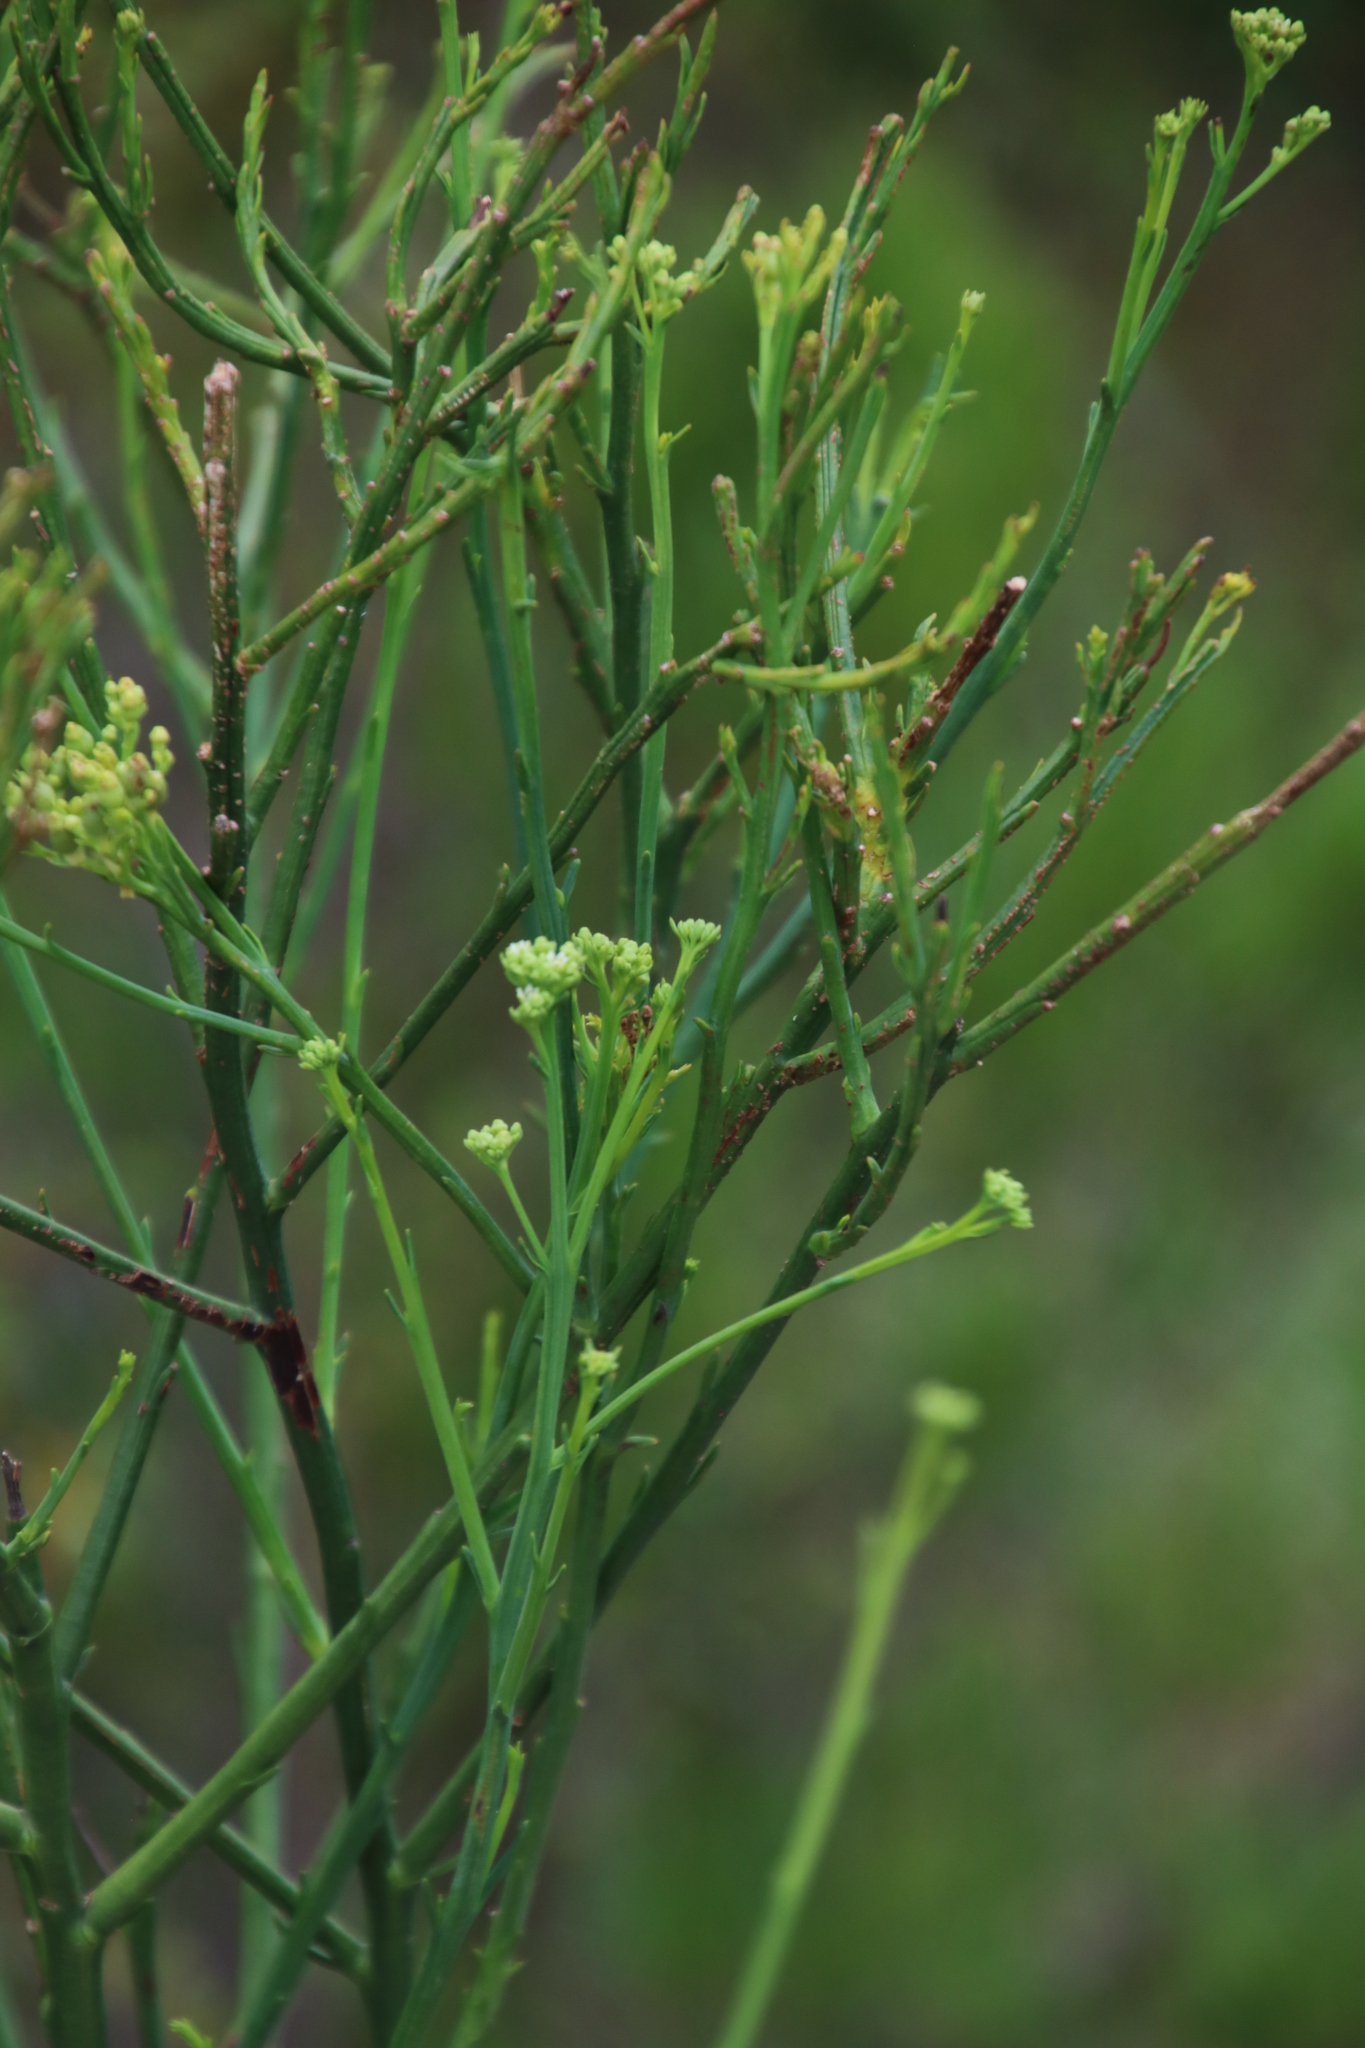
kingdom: Plantae
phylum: Tracheophyta
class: Magnoliopsida
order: Santalales
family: Thesiaceae
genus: Thesium
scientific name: Thesium strictum
